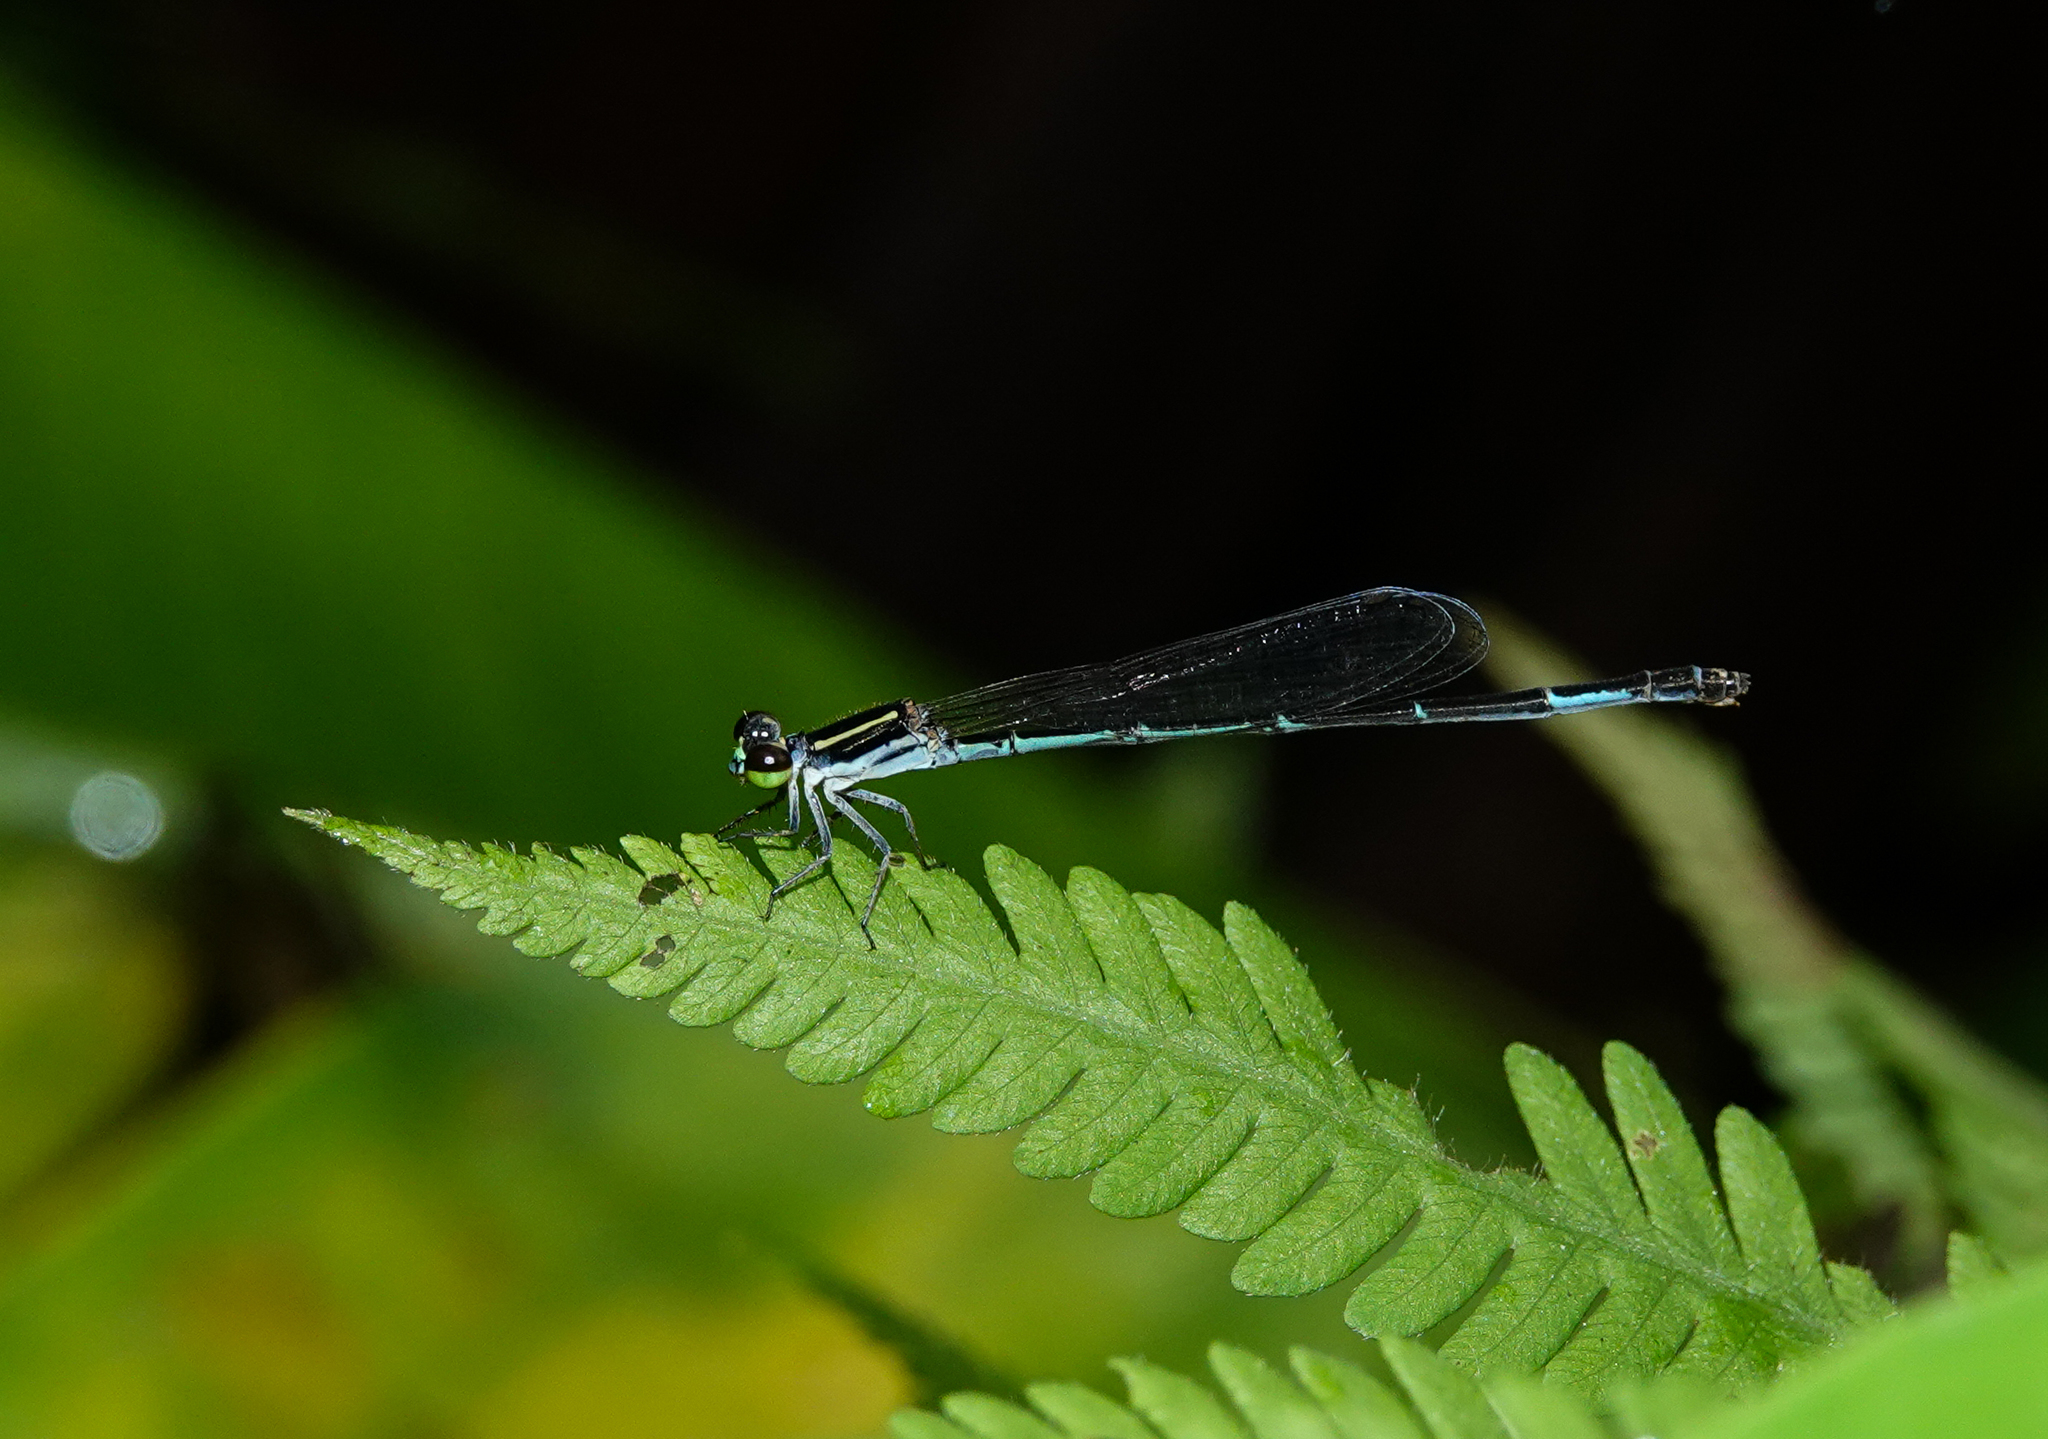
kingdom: Animalia
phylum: Arthropoda
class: Insecta
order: Odonata
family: Coenagrionidae
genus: Mortonagrion
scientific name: Mortonagrion aborense
